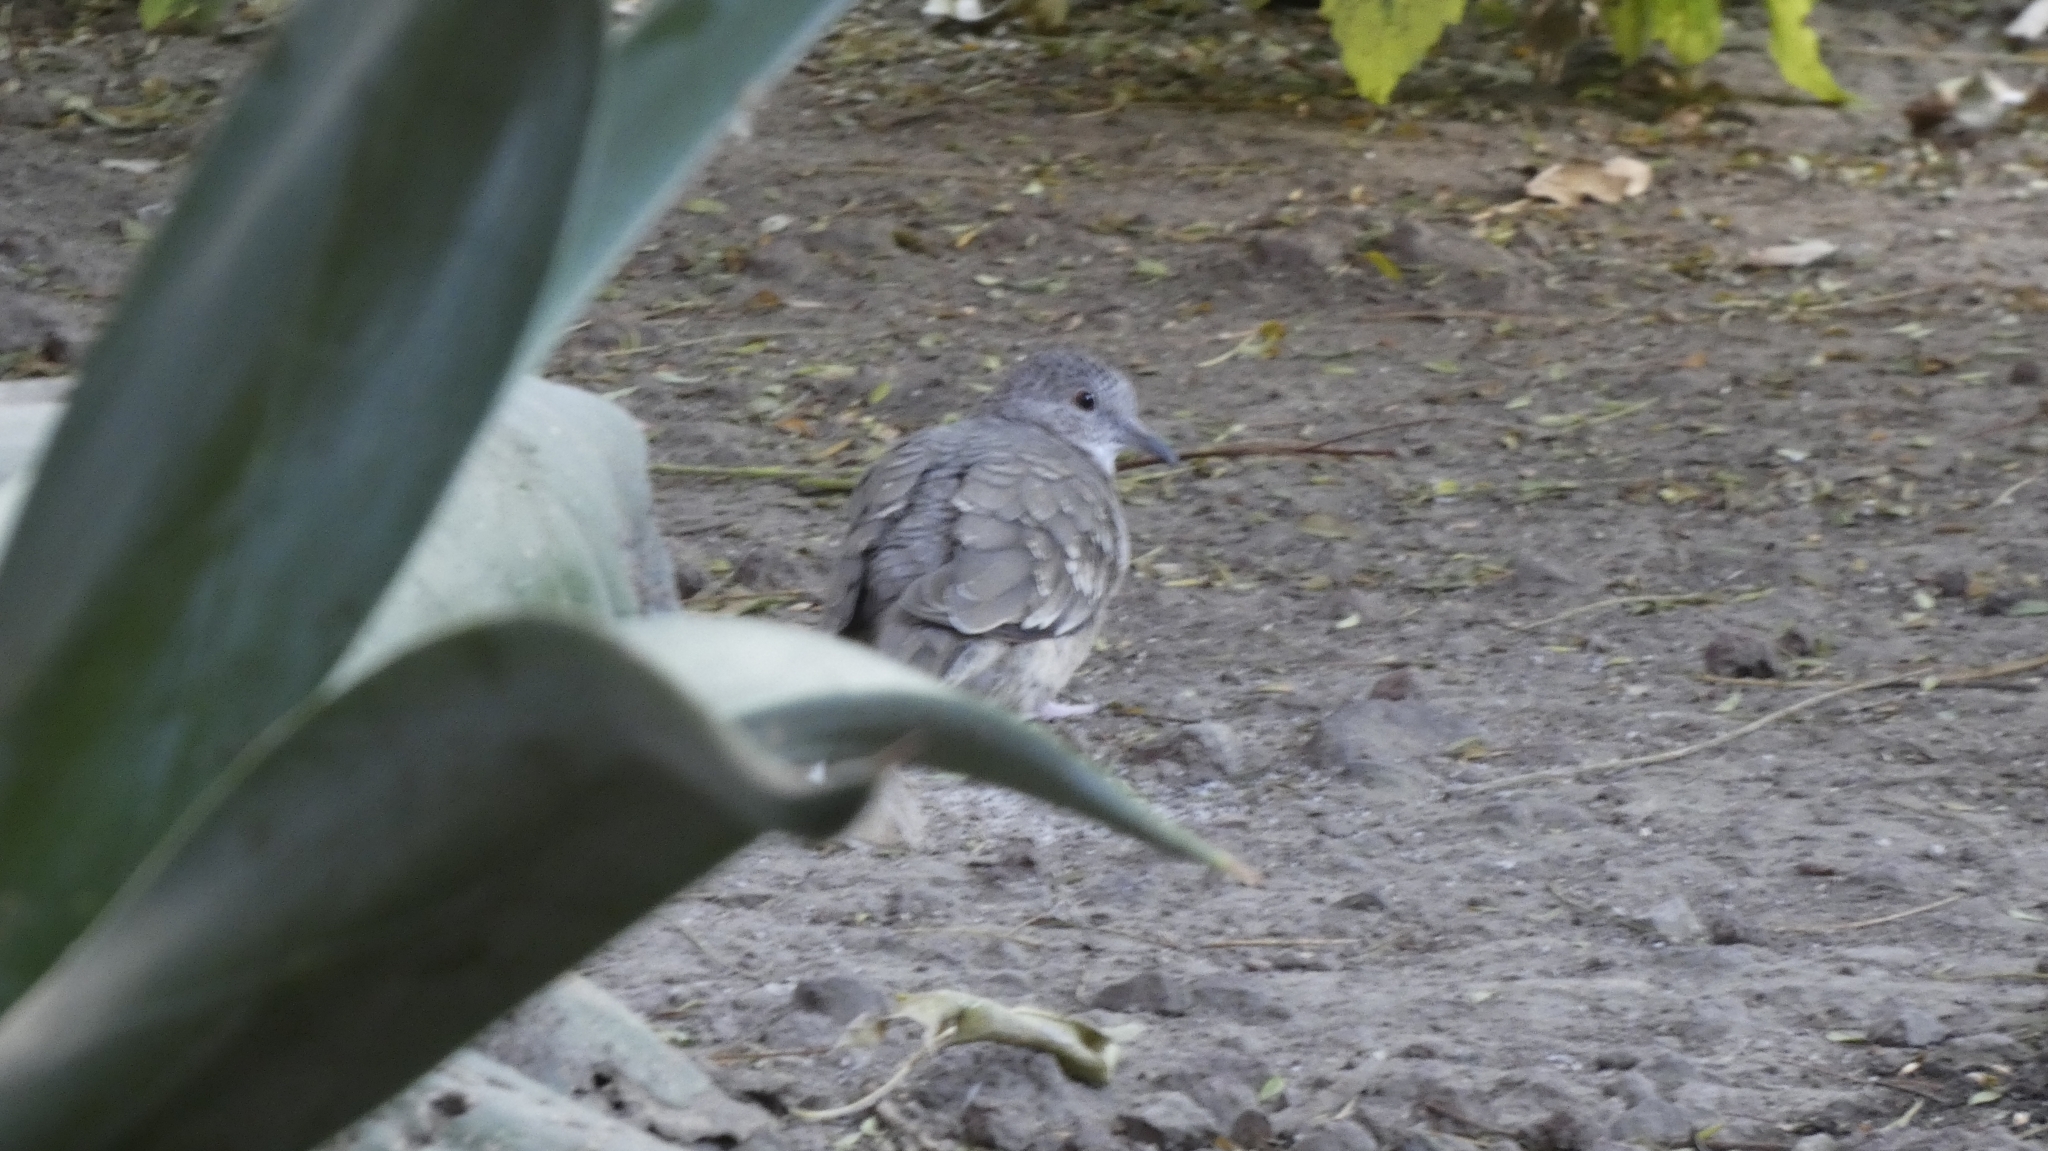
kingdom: Animalia
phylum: Chordata
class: Aves
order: Columbiformes
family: Columbidae
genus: Columbina
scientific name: Columbina inca
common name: Inca dove
